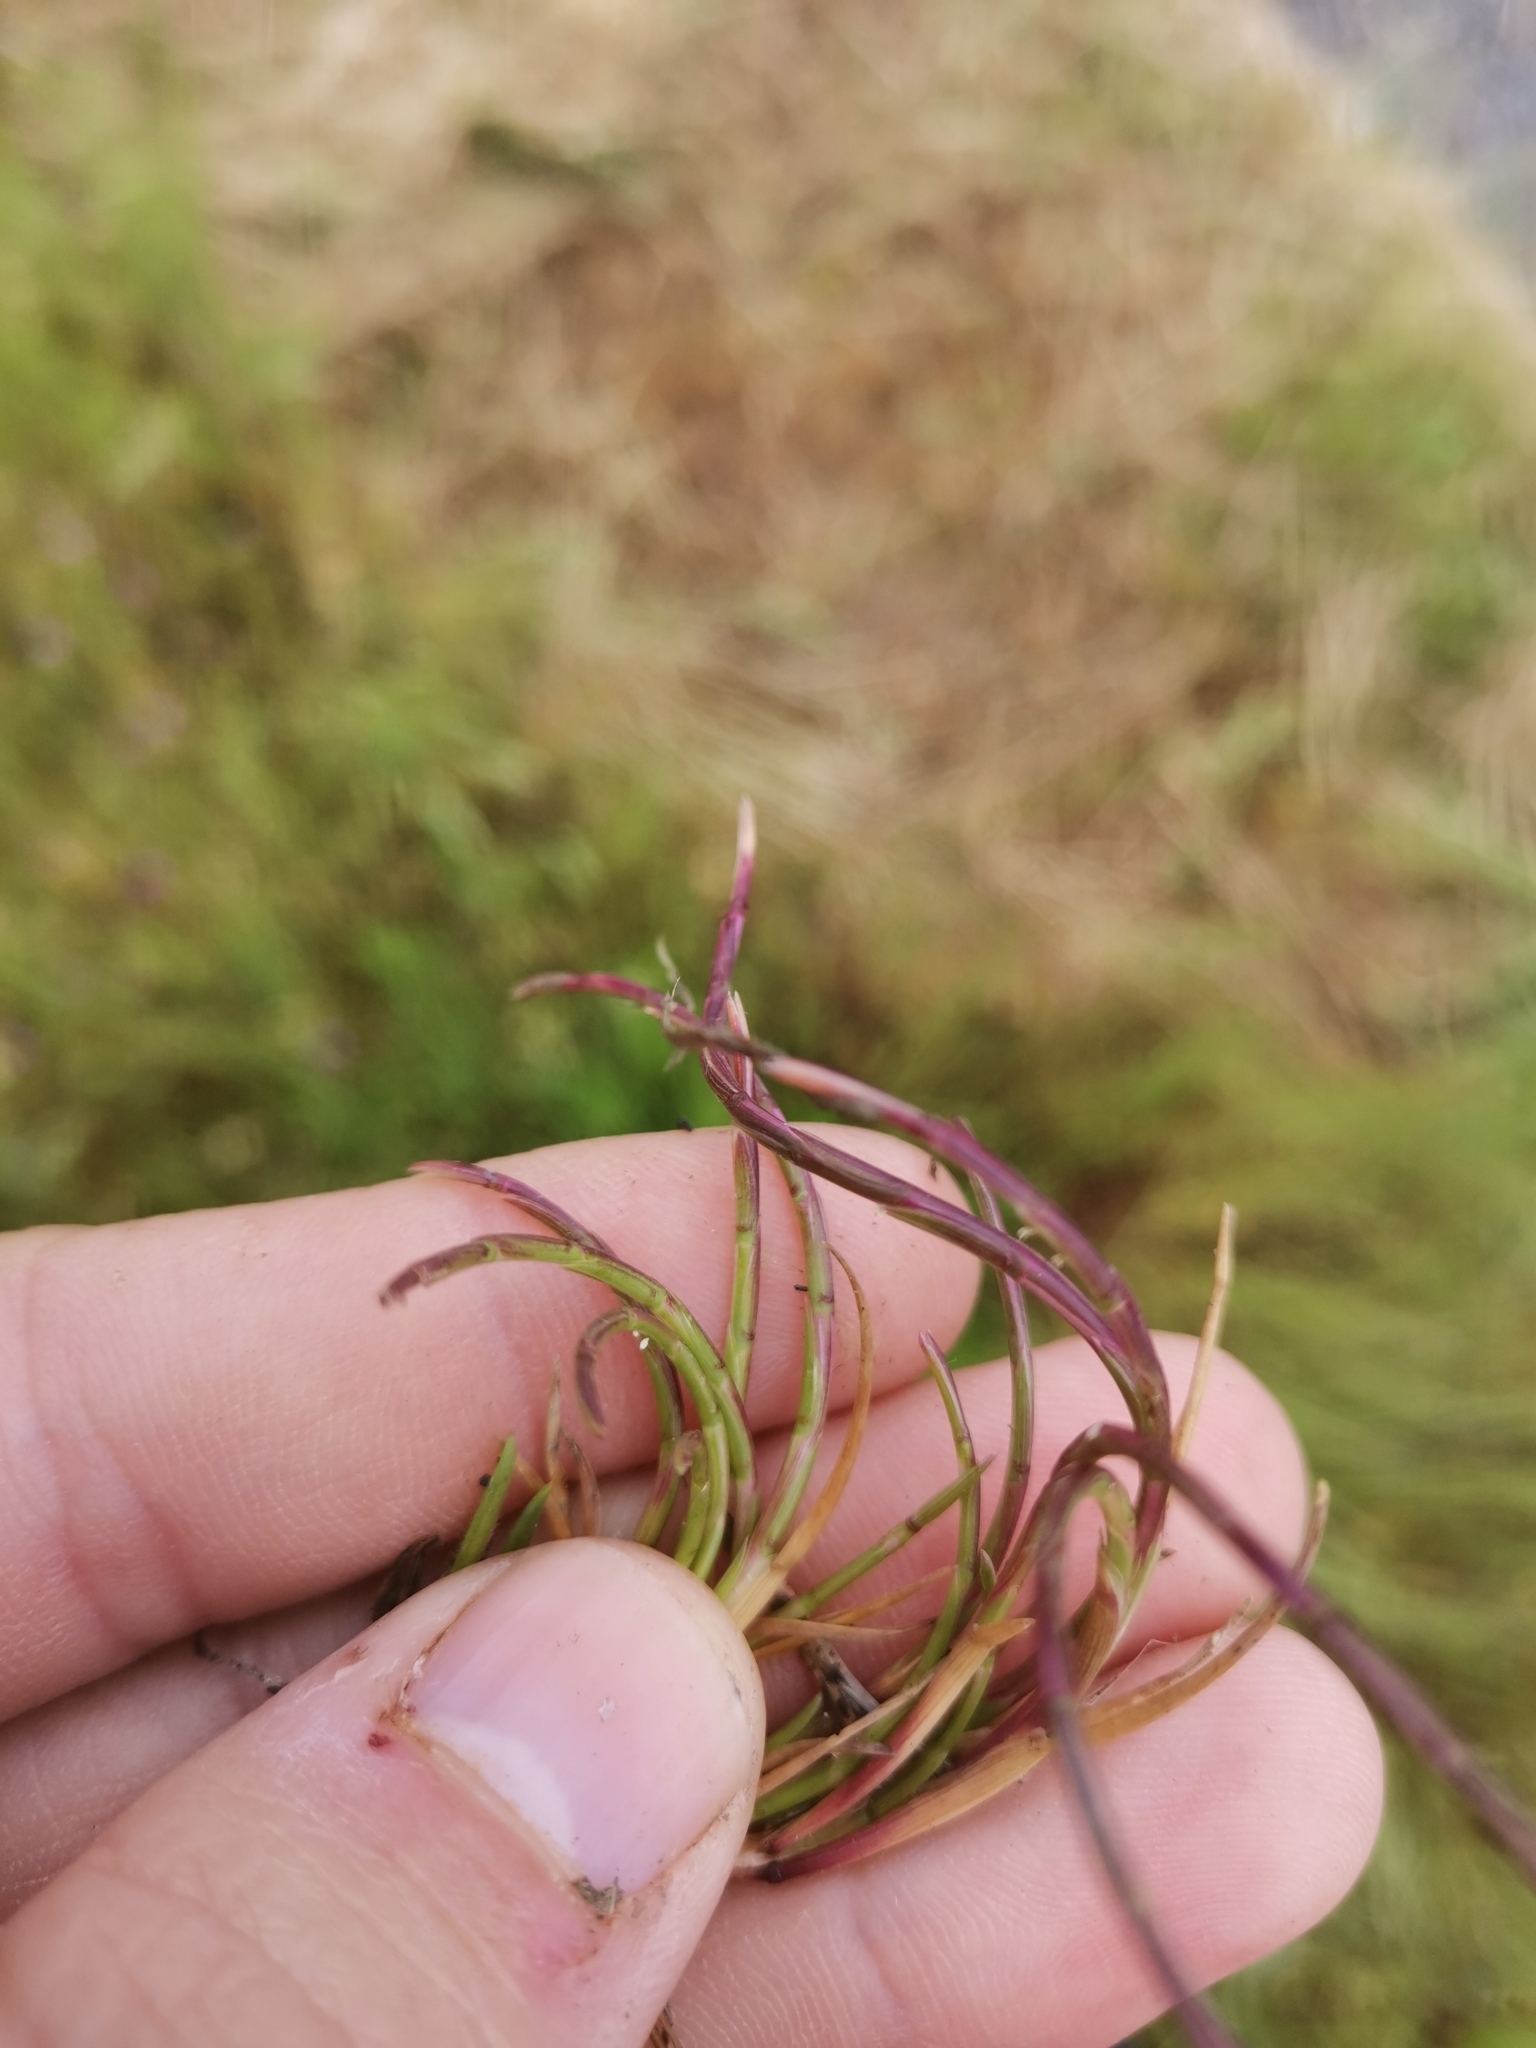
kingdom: Plantae
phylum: Tracheophyta
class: Liliopsida
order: Poales
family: Poaceae
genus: Parapholis
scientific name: Parapholis incurva
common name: Curved sicklegrass
